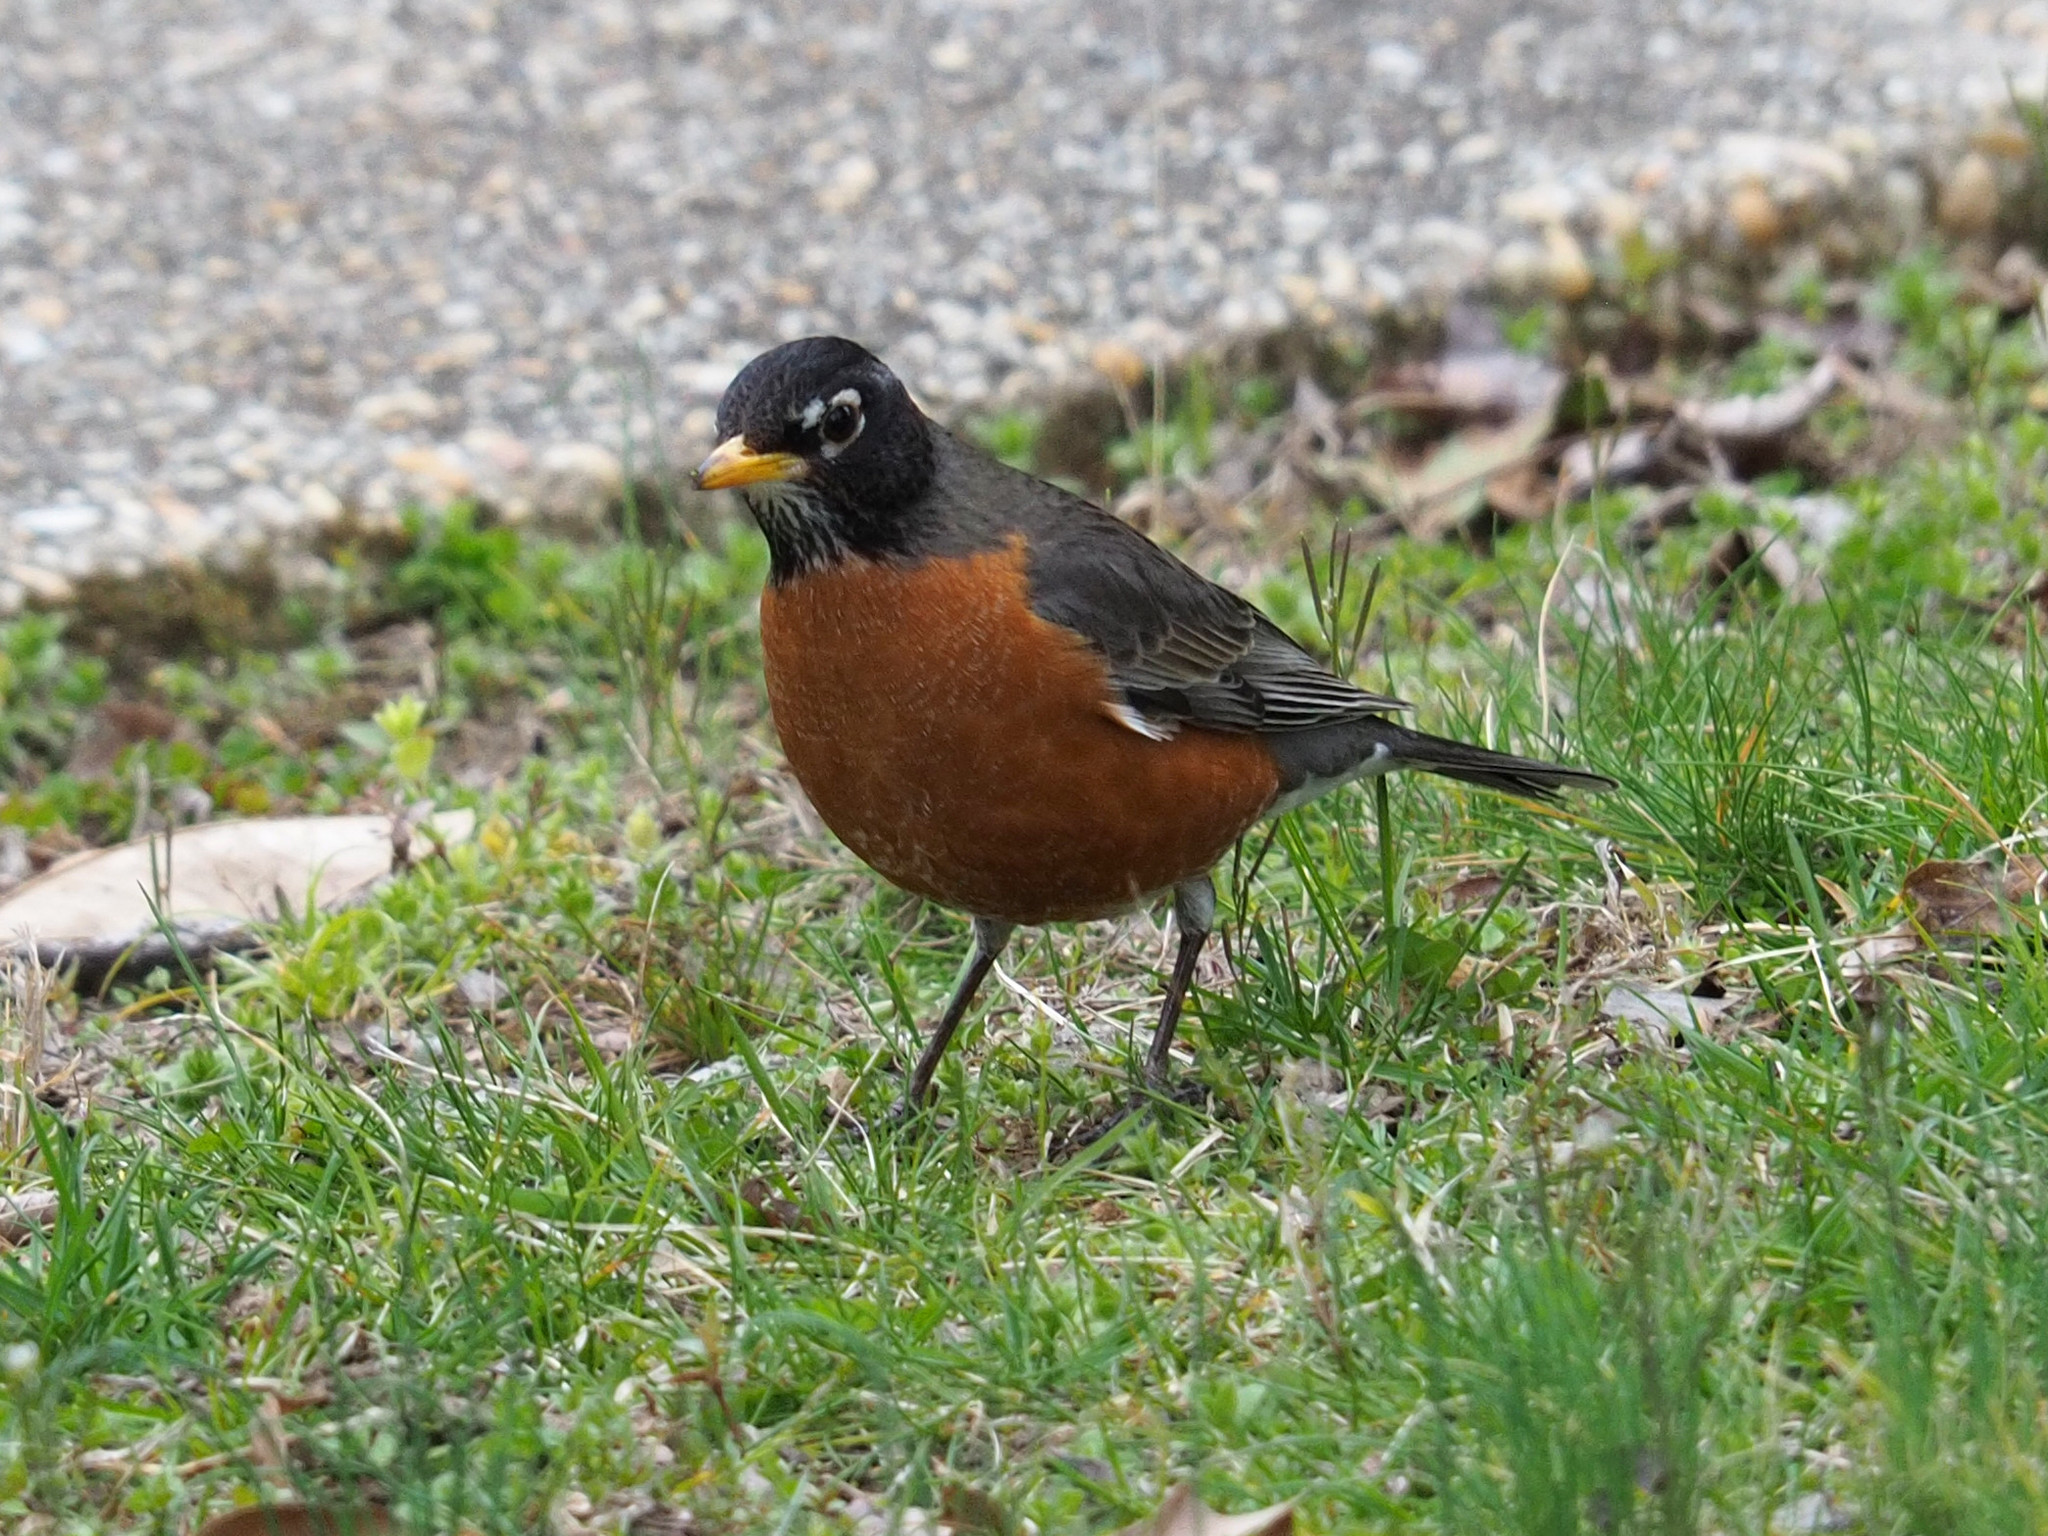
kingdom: Animalia
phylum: Chordata
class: Aves
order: Passeriformes
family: Turdidae
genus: Turdus
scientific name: Turdus migratorius
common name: American robin
